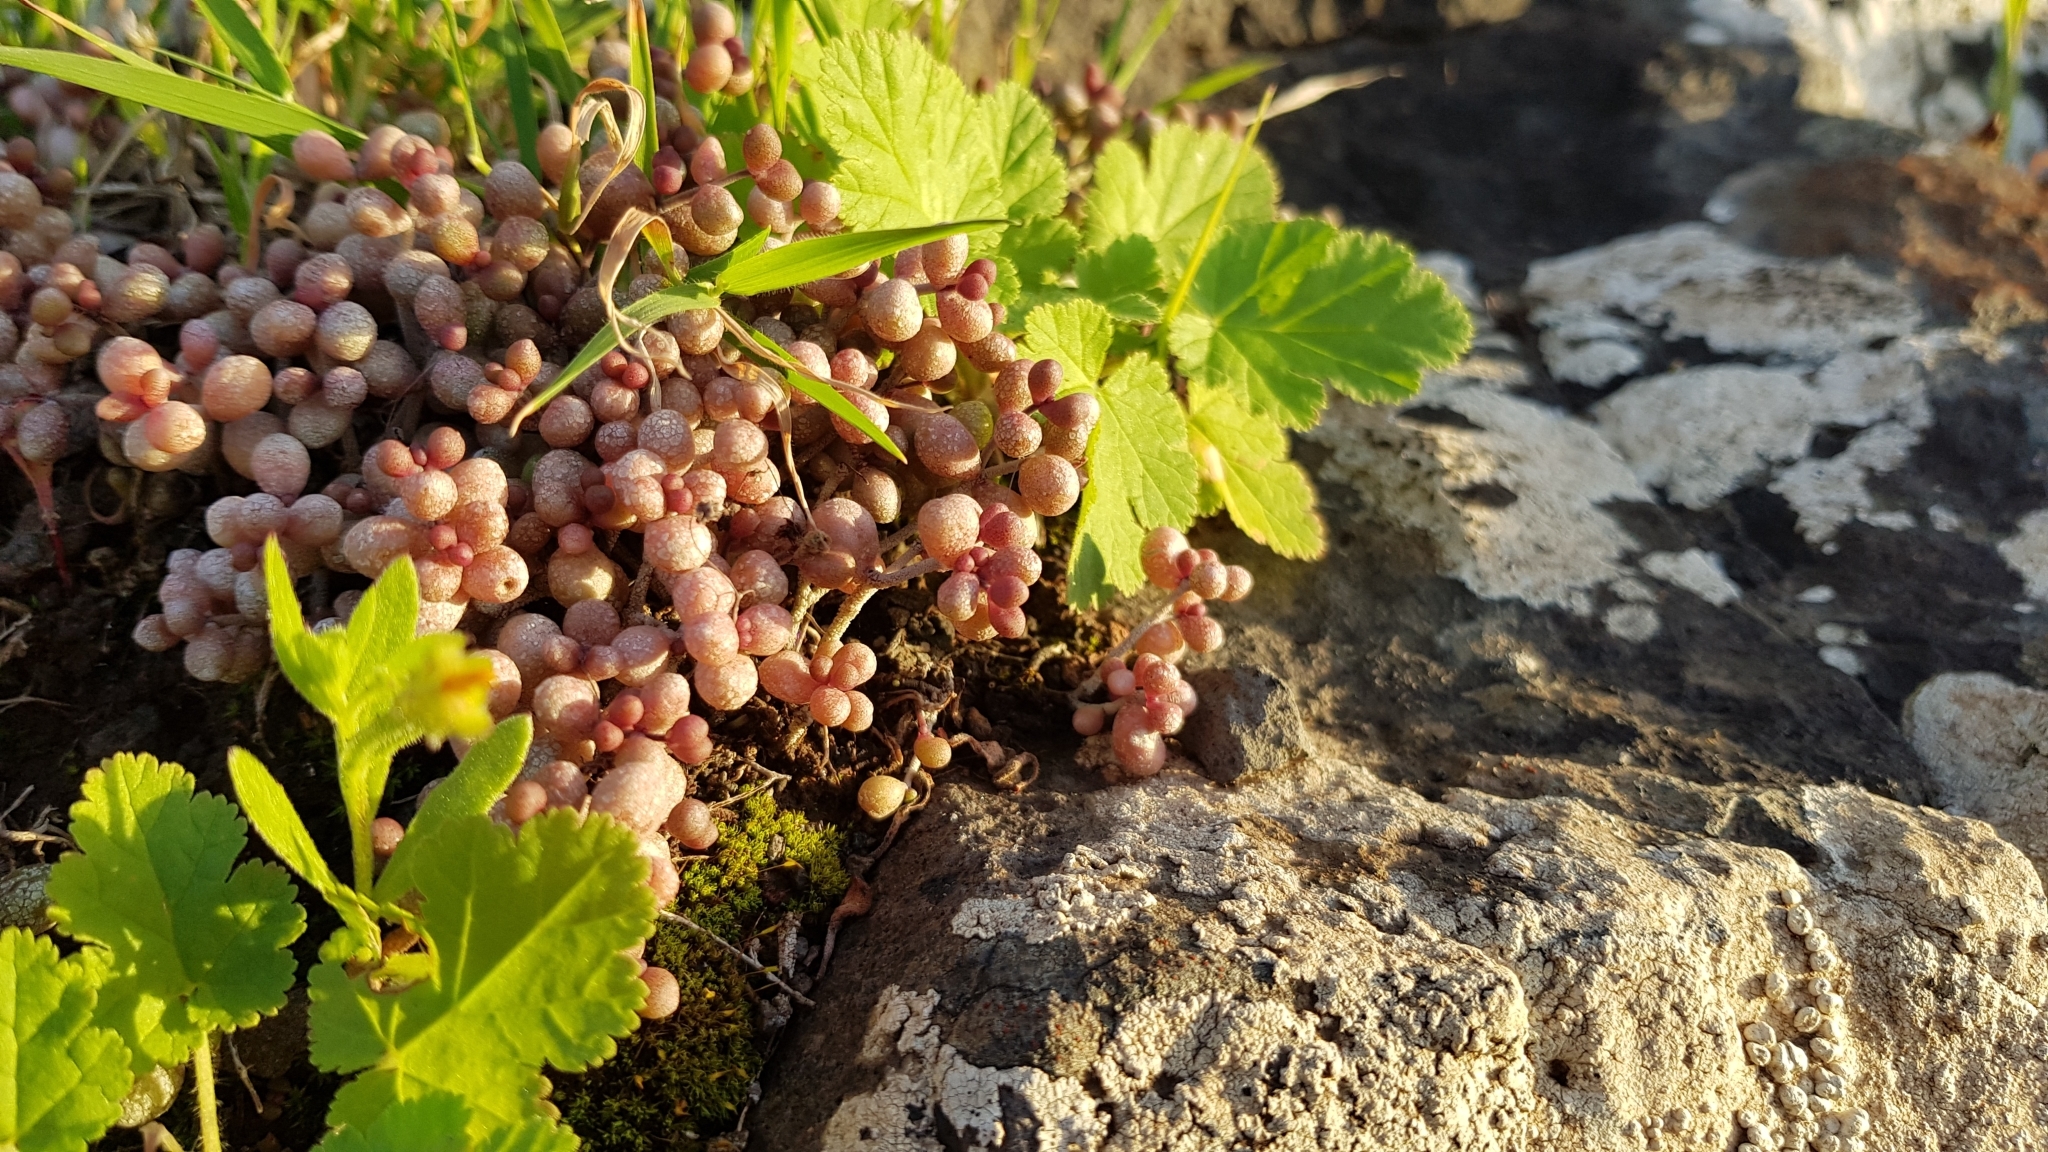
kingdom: Plantae
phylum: Tracheophyta
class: Magnoliopsida
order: Saxifragales
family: Crassulaceae
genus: Monanthes
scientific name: Monanthes laxiflora
